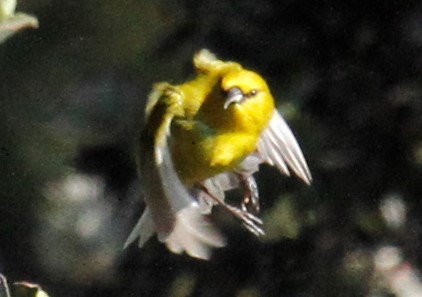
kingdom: Animalia
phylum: Chordata
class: Aves
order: Passeriformes
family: Fringillidae
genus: Chlorodrepanis
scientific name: Chlorodrepanis virens
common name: Hawaii amakihi
